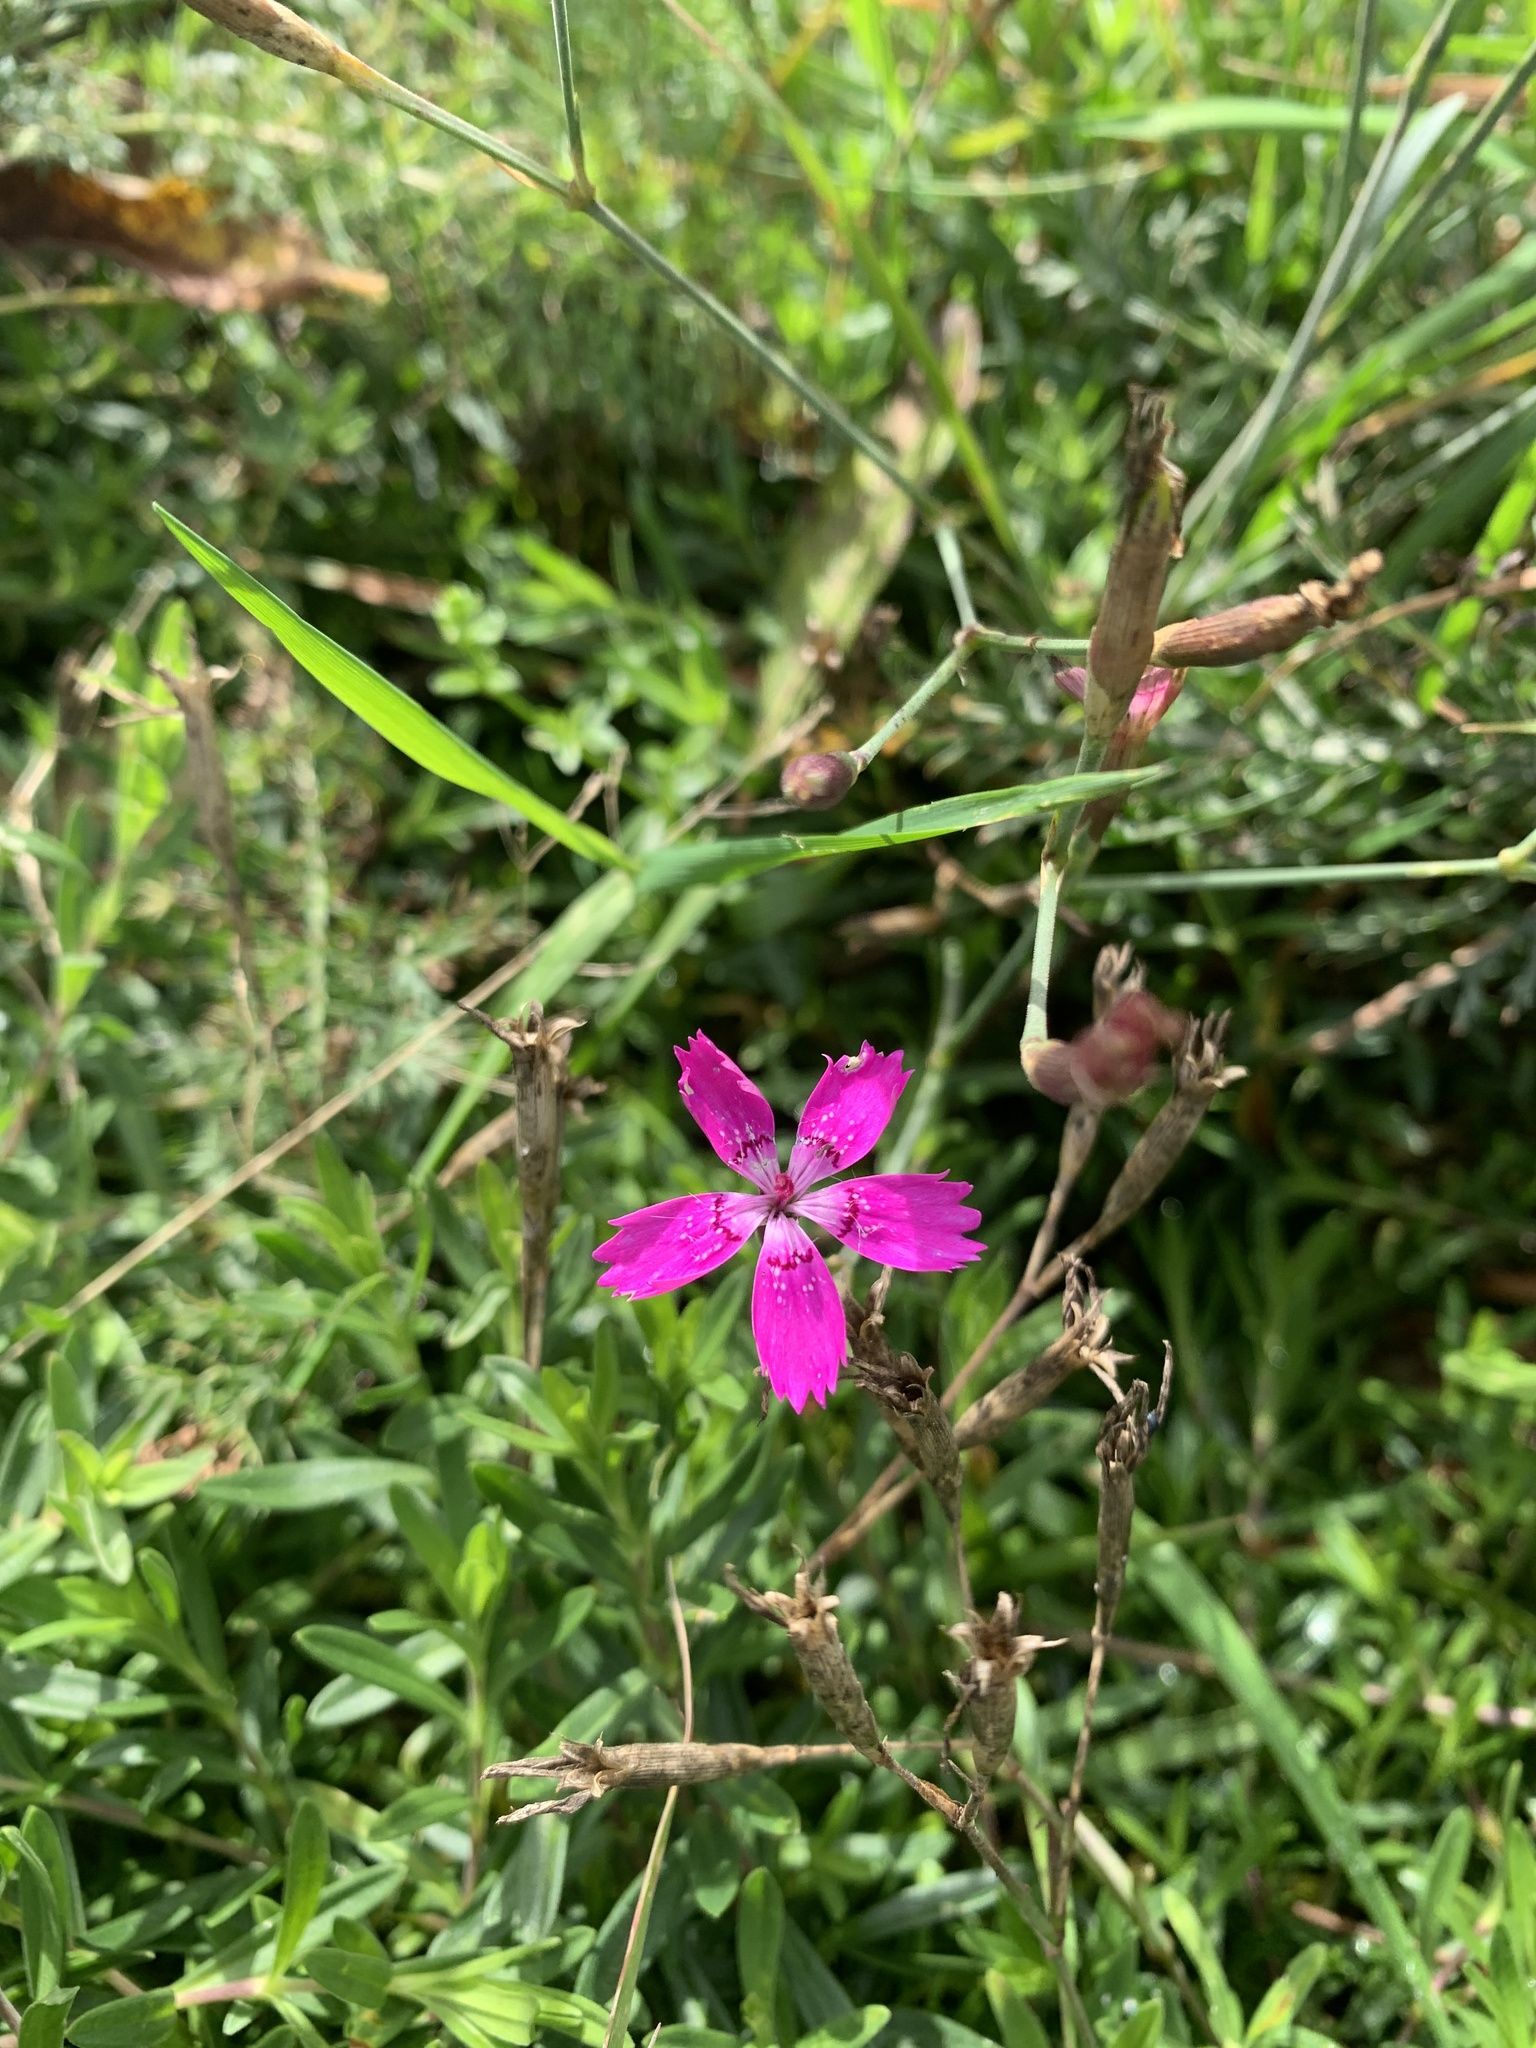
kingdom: Plantae
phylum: Tracheophyta
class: Magnoliopsida
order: Caryophyllales
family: Caryophyllaceae
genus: Dianthus
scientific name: Dianthus deltoides
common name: Maiden pink
